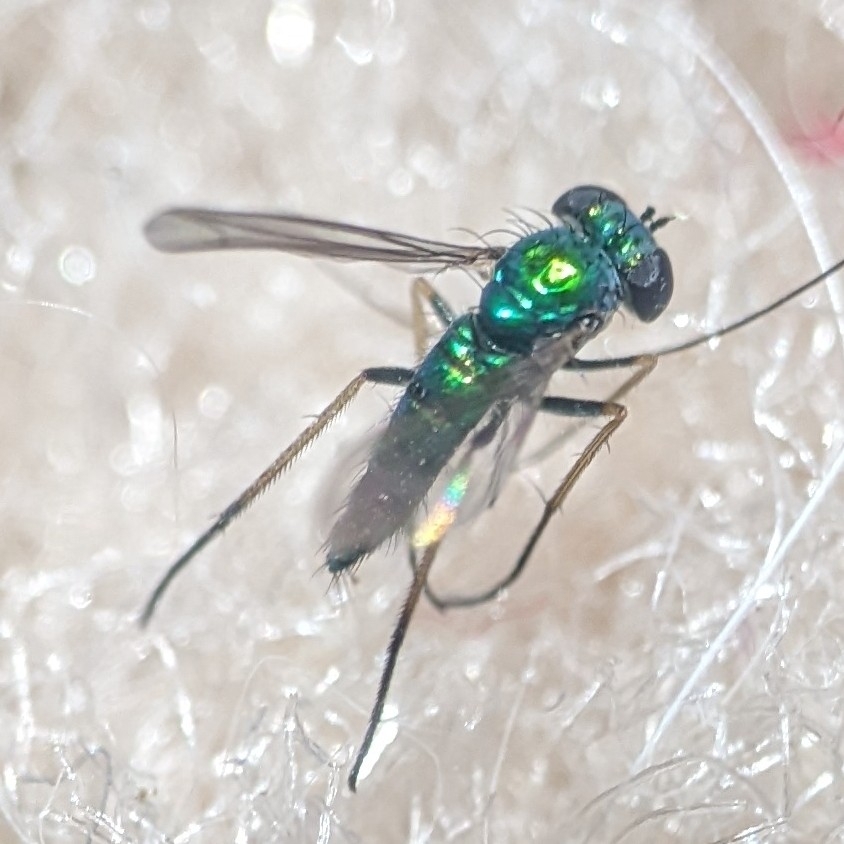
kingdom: Animalia
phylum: Arthropoda
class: Insecta
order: Diptera
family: Dolichopodidae
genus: Condylostylus
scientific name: Condylostylus caudatus
